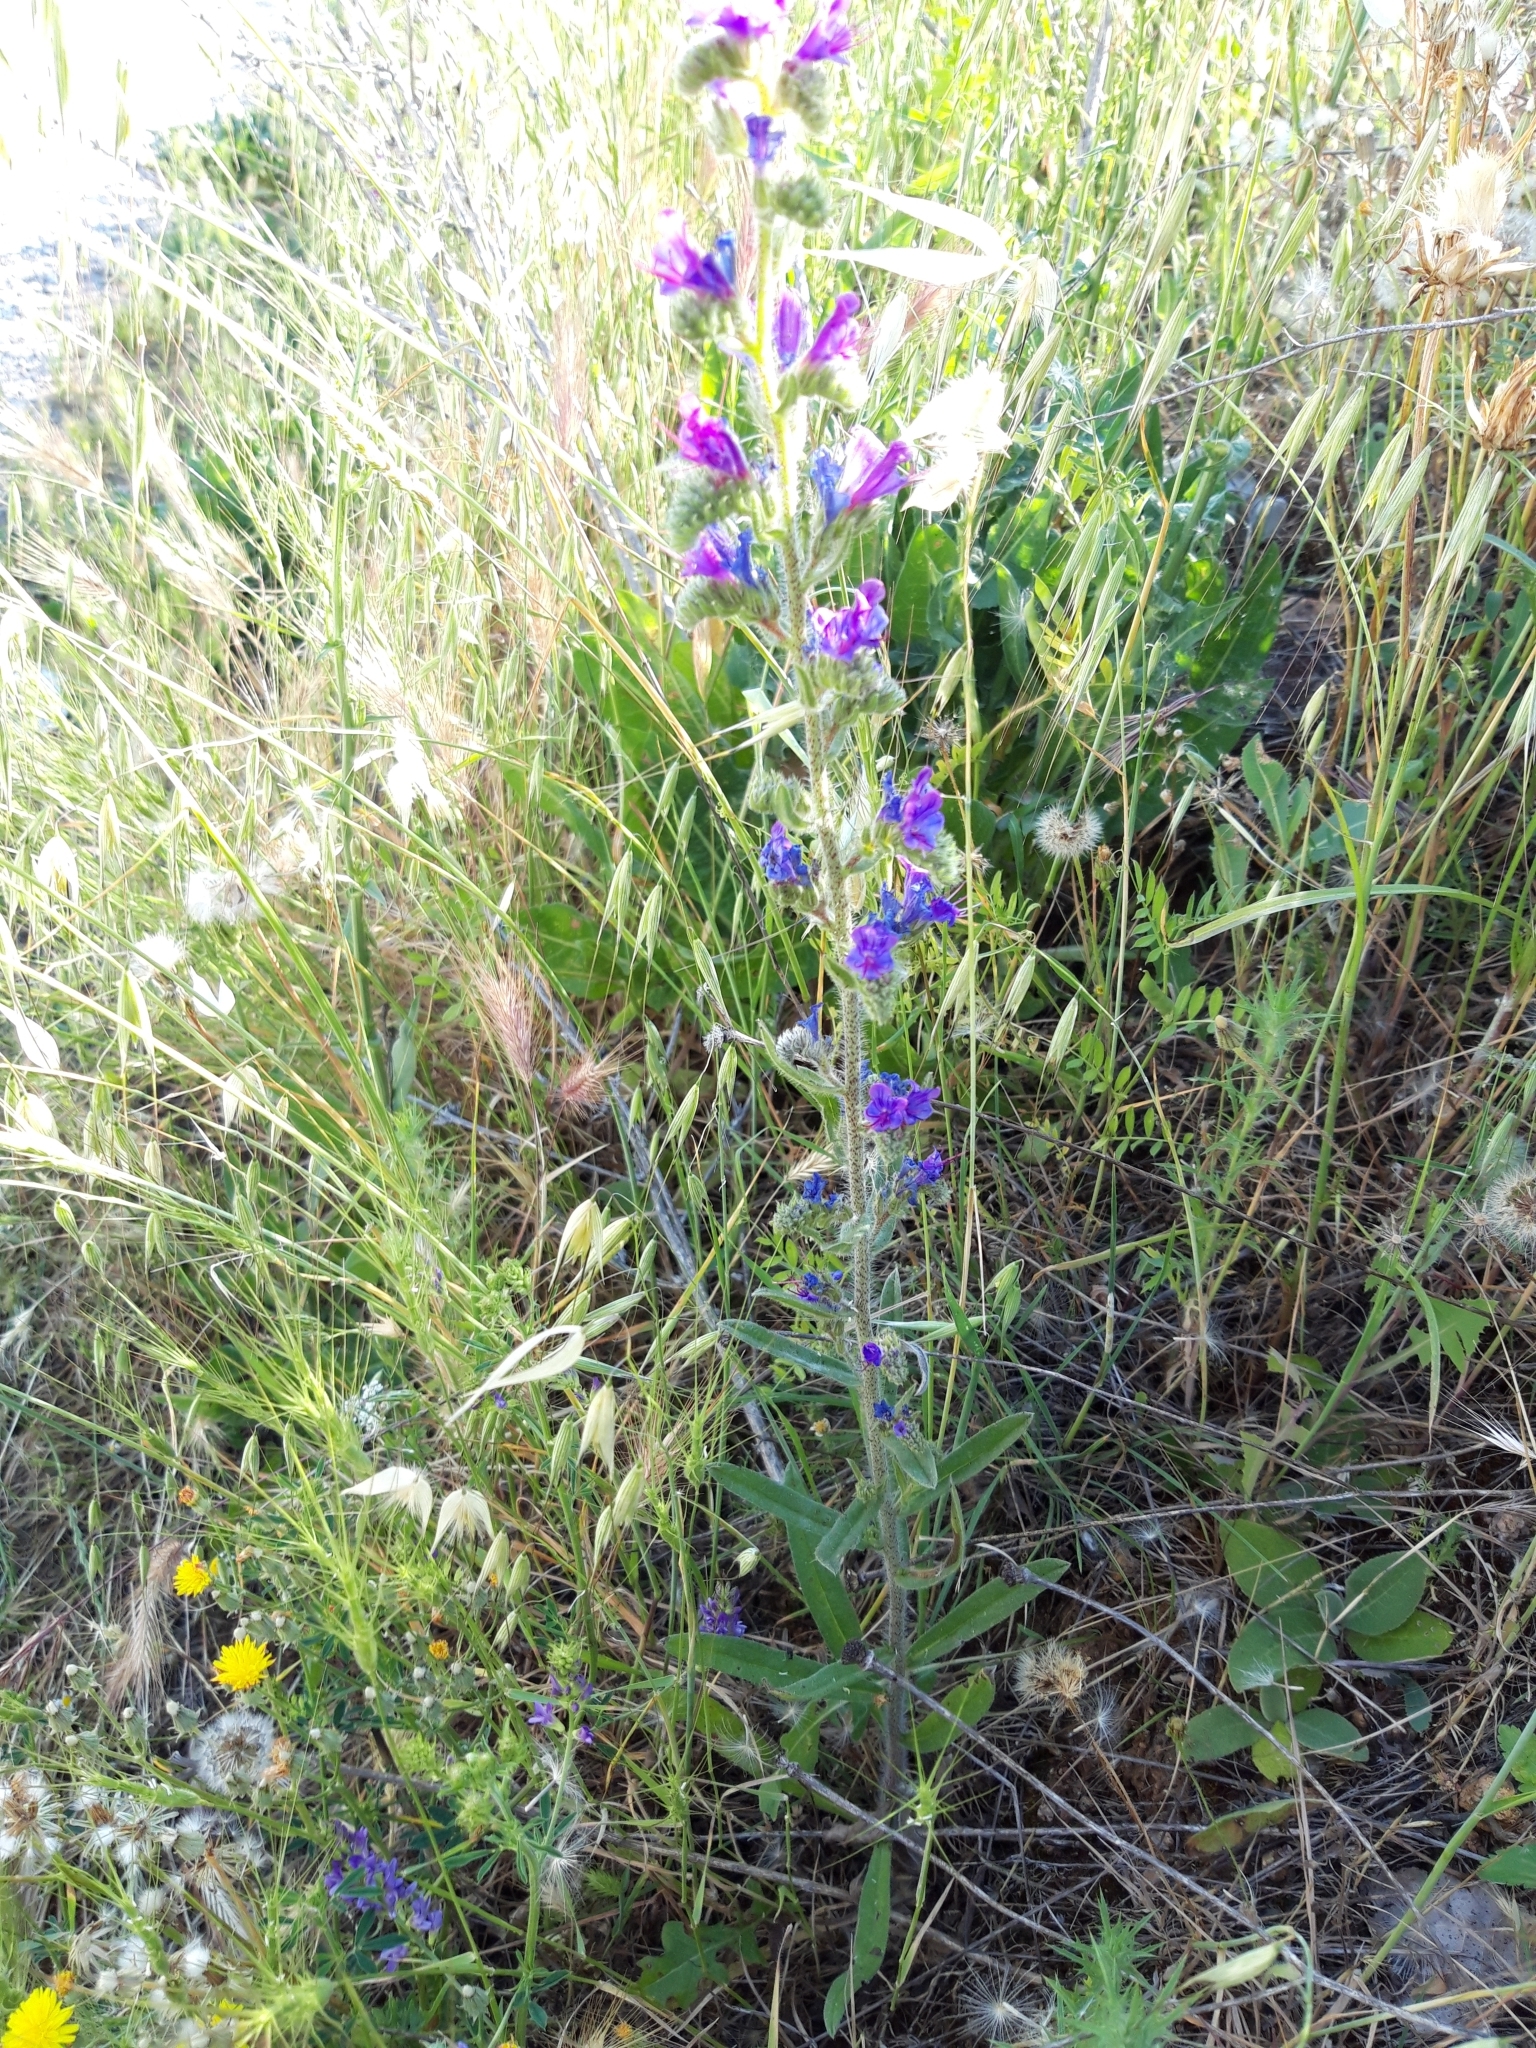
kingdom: Plantae
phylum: Tracheophyta
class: Magnoliopsida
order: Boraginales
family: Boraginaceae
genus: Echium
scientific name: Echium vulgare
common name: Common viper's bugloss
